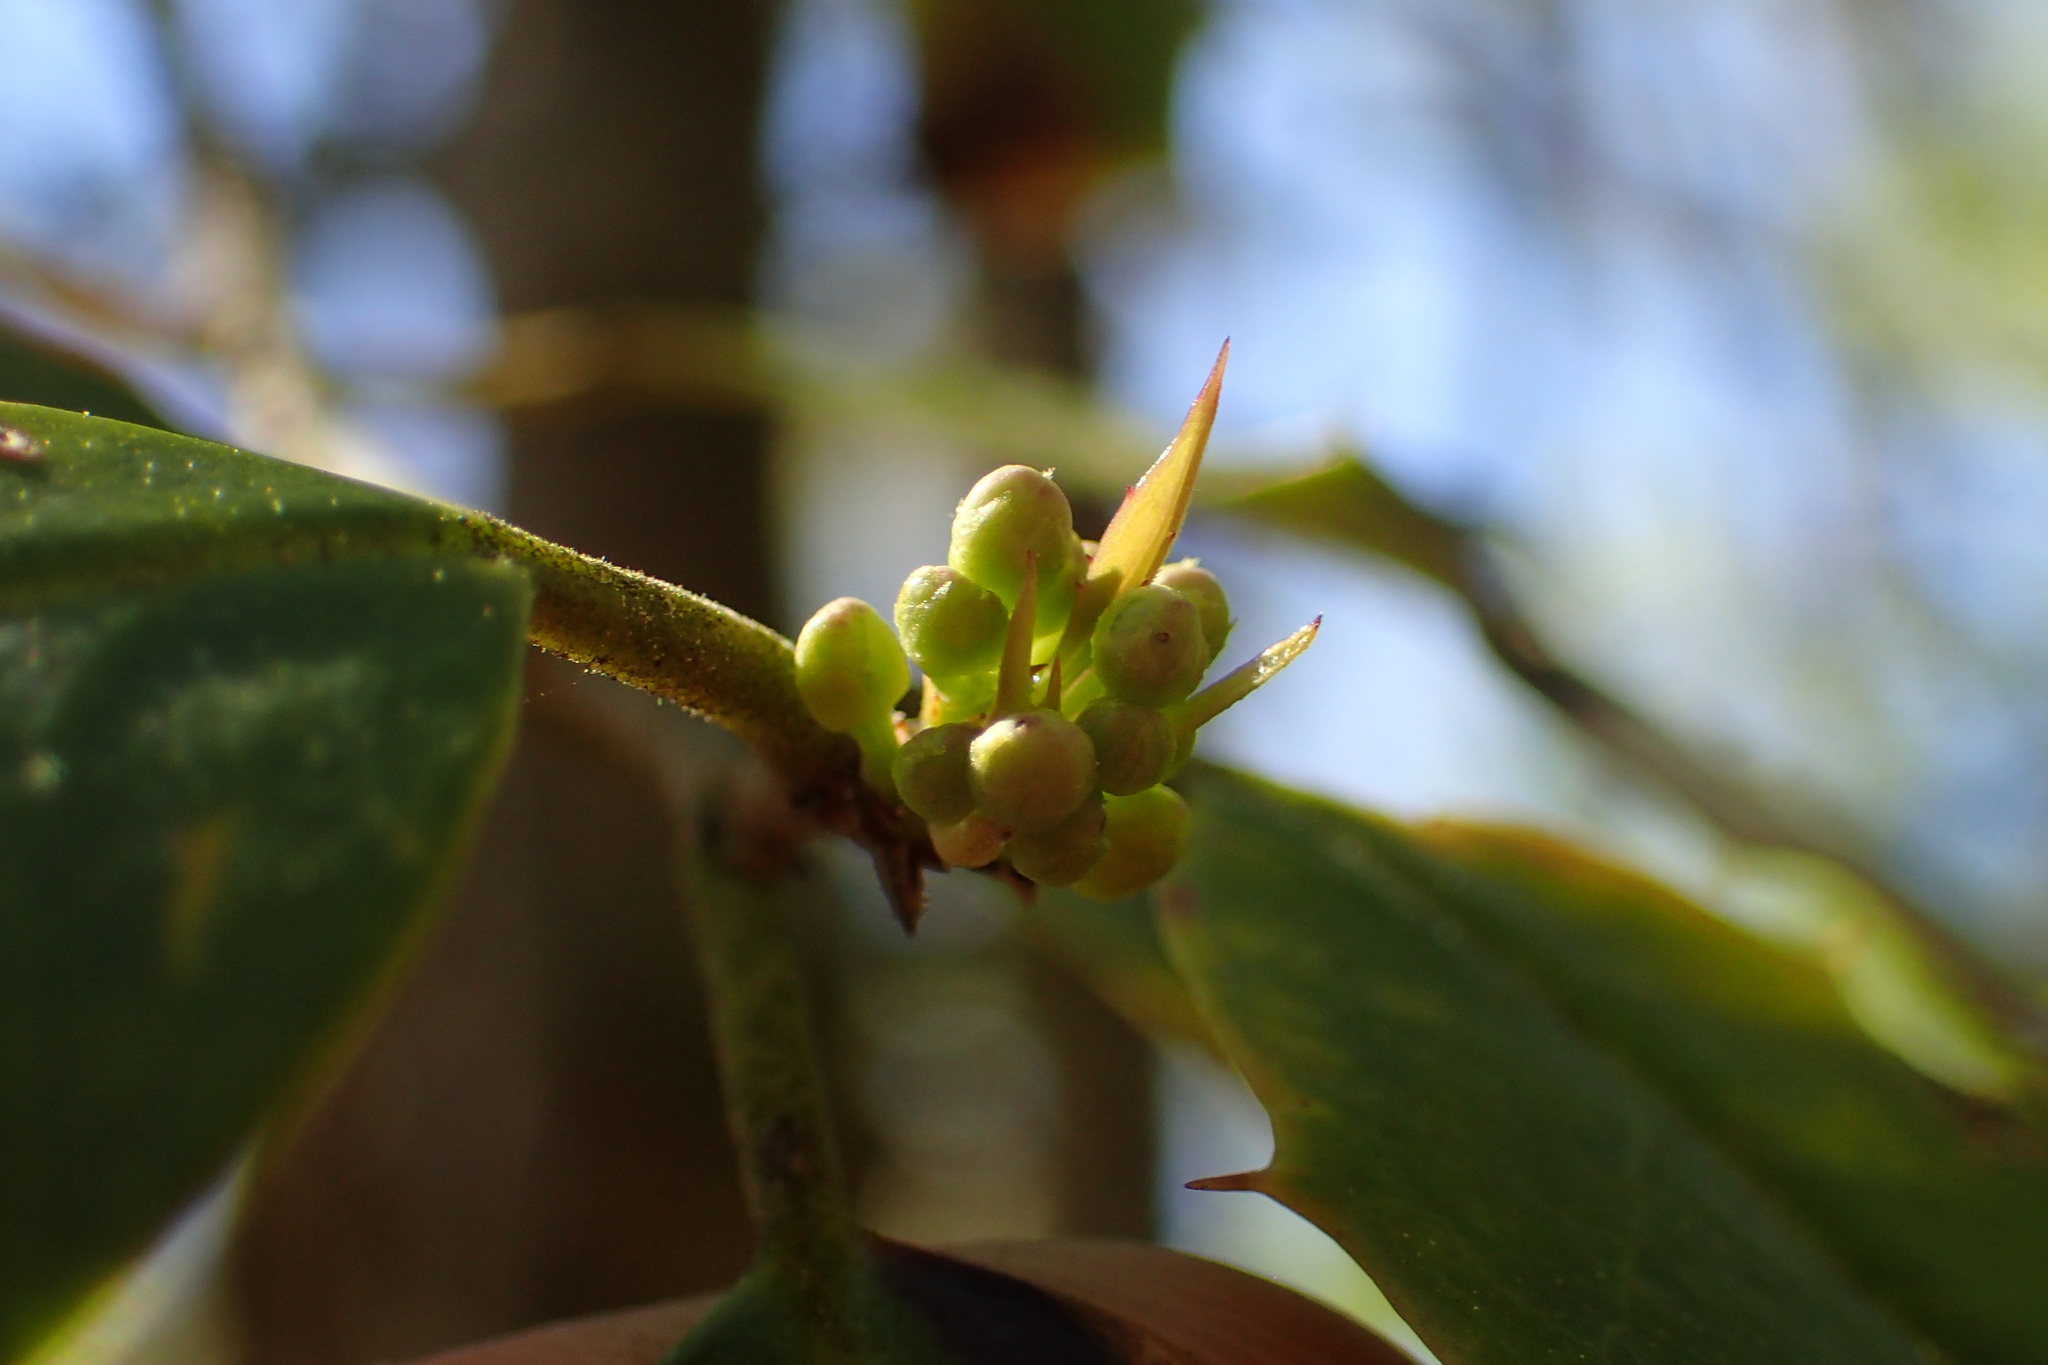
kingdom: Plantae
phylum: Tracheophyta
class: Magnoliopsida
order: Aquifoliales
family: Aquifoliaceae
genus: Ilex
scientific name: Ilex opaca
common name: American holly
